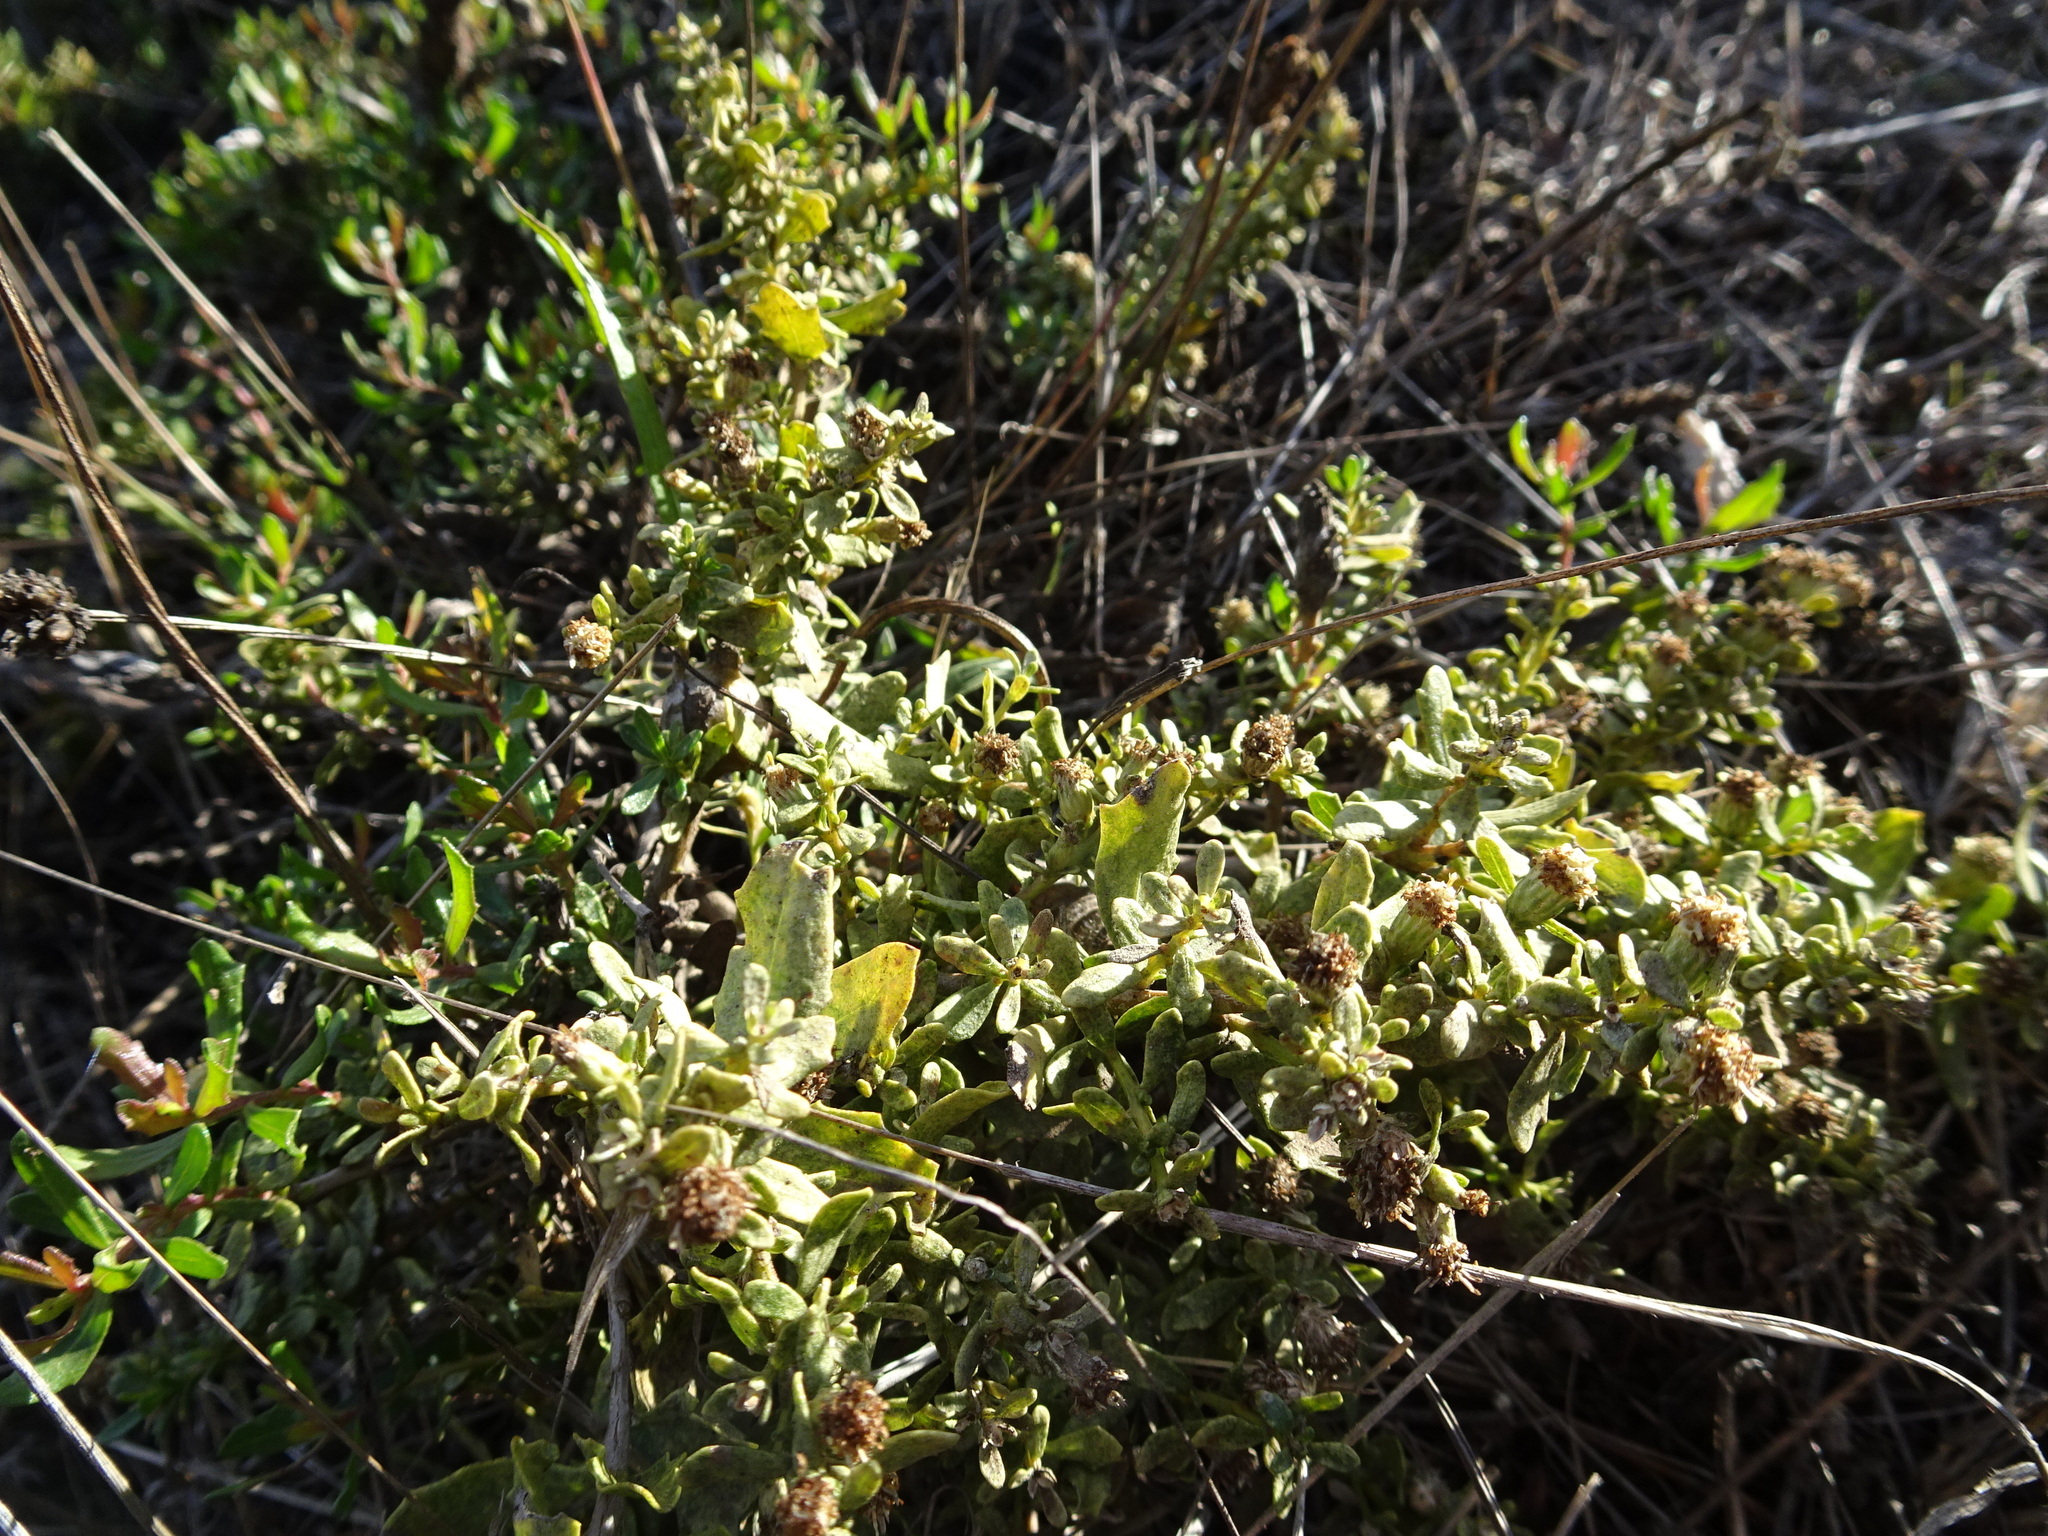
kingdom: Plantae
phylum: Tracheophyta
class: Magnoliopsida
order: Asterales
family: Asteraceae
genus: Baccharis
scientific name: Baccharis pilularis
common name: Coyotebrush
